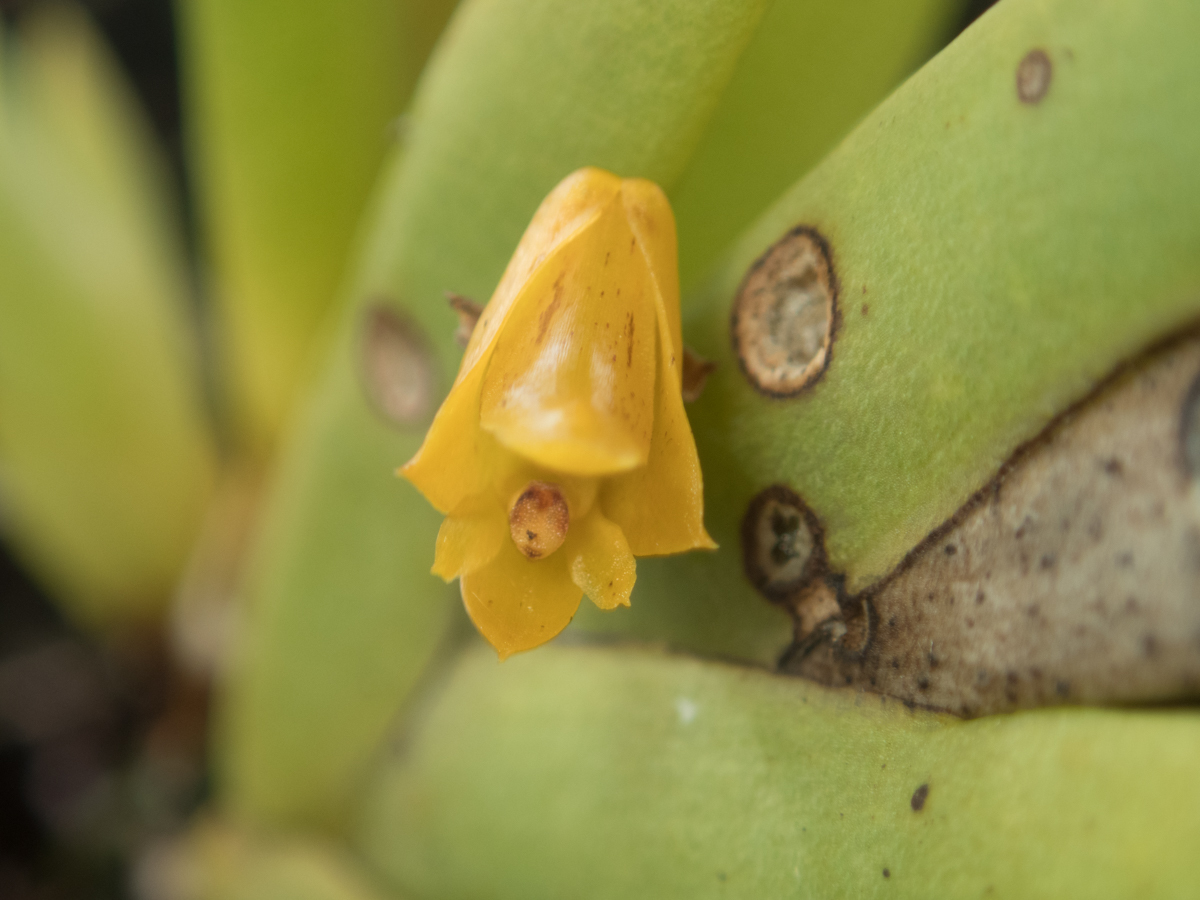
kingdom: Plantae
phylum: Tracheophyta
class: Liliopsida
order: Asparagales
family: Orchidaceae
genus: Oxystophyllum
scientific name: Oxystophyllum carnosum
